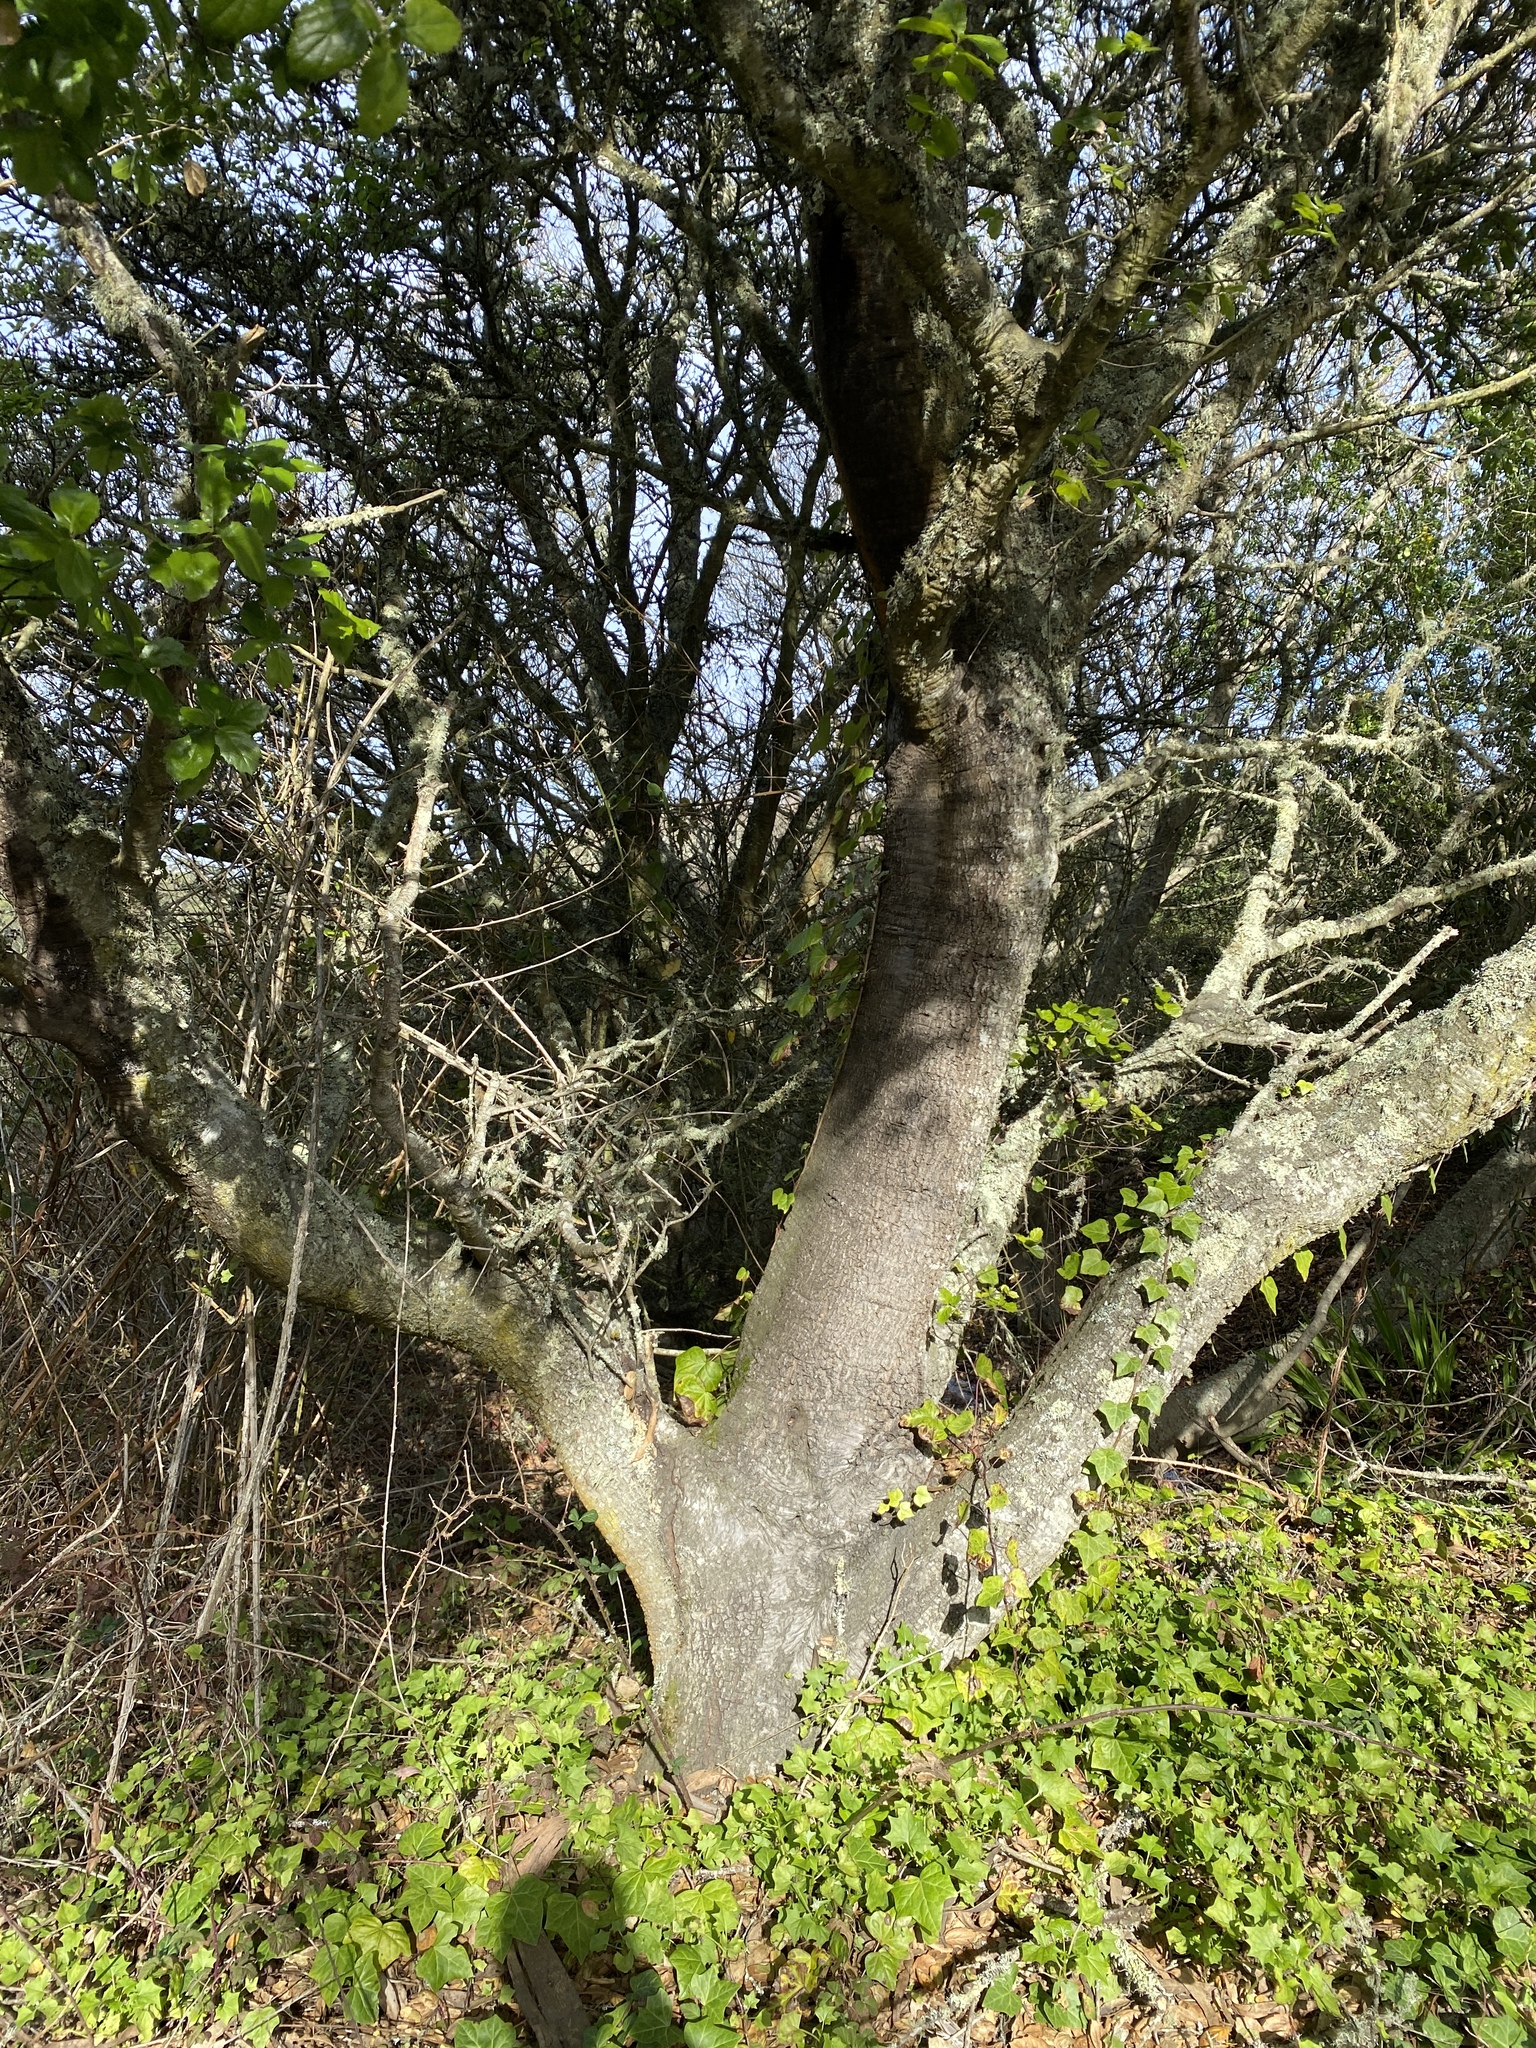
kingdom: Plantae
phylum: Tracheophyta
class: Magnoliopsida
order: Fagales
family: Fagaceae
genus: Quercus
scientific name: Quercus agrifolia
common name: California live oak
